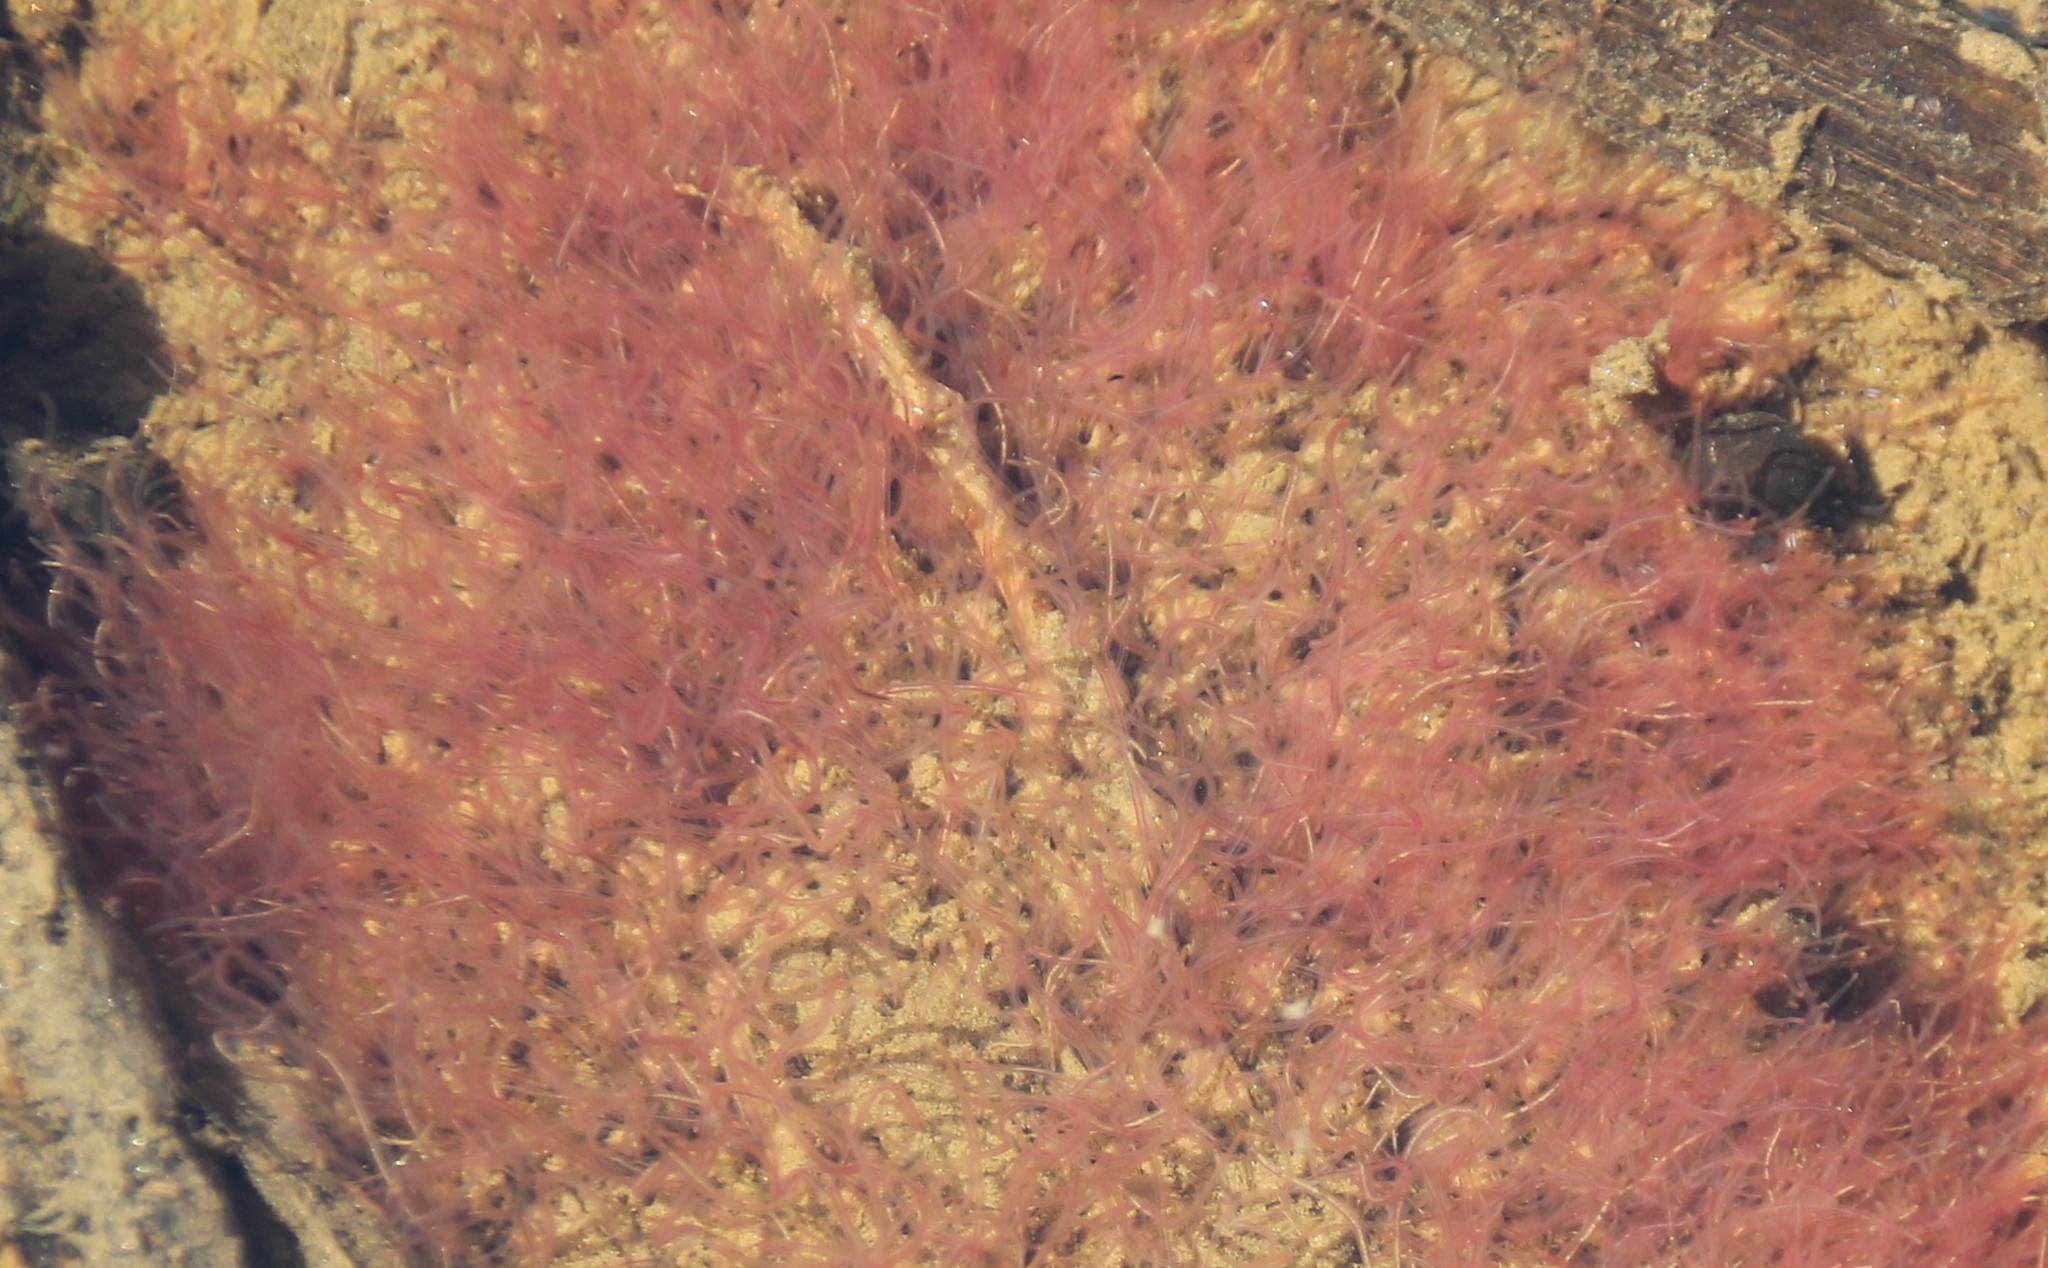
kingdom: Animalia
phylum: Annelida
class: Clitellata
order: Tubificida
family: Naididae
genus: Tubifex
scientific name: Tubifex tubifex
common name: River worm
